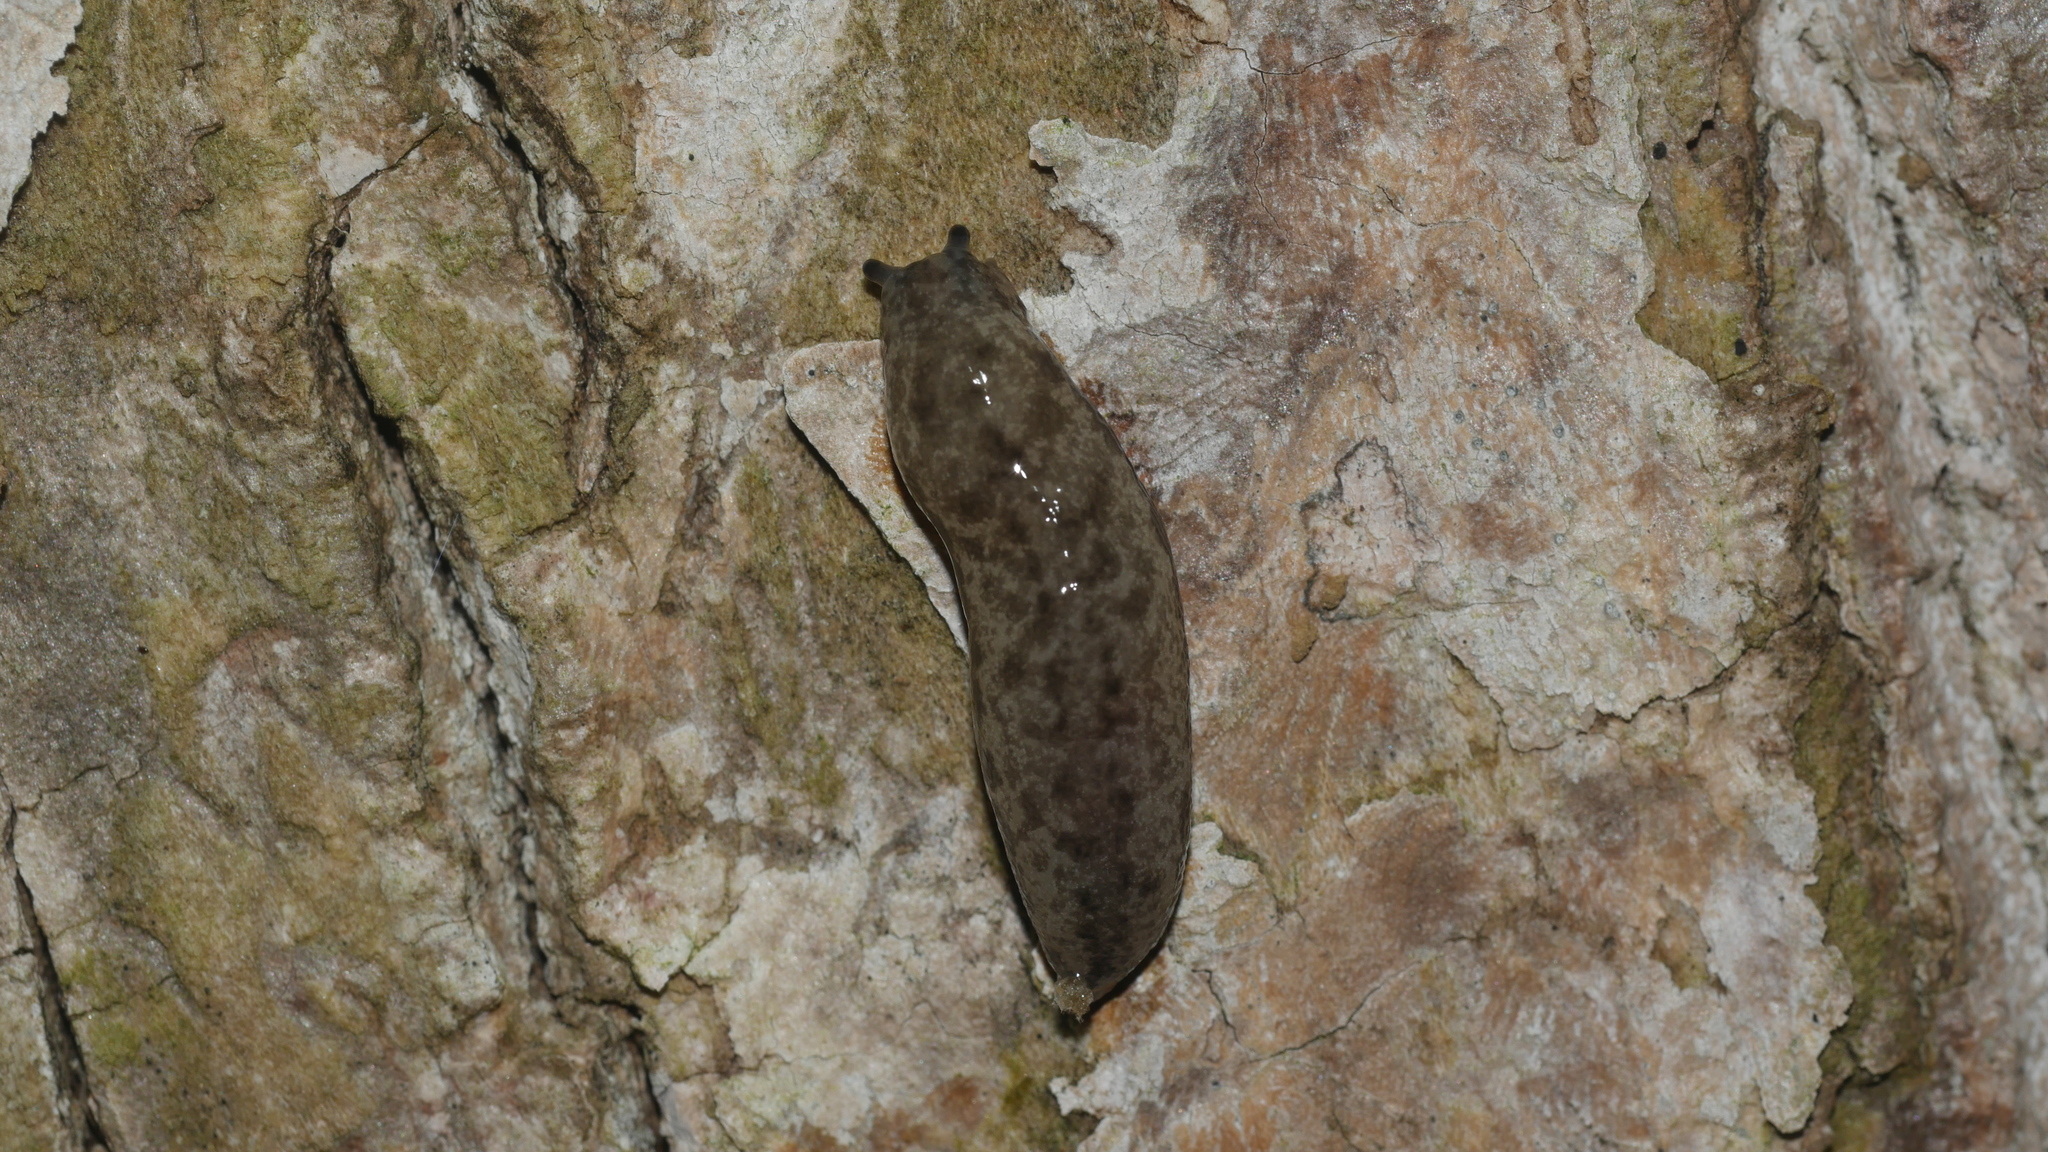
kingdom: Animalia
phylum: Mollusca
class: Gastropoda
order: Stylommatophora
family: Philomycidae
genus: Megapallifera
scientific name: Megapallifera mutabilis
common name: Changeable mantleslug
